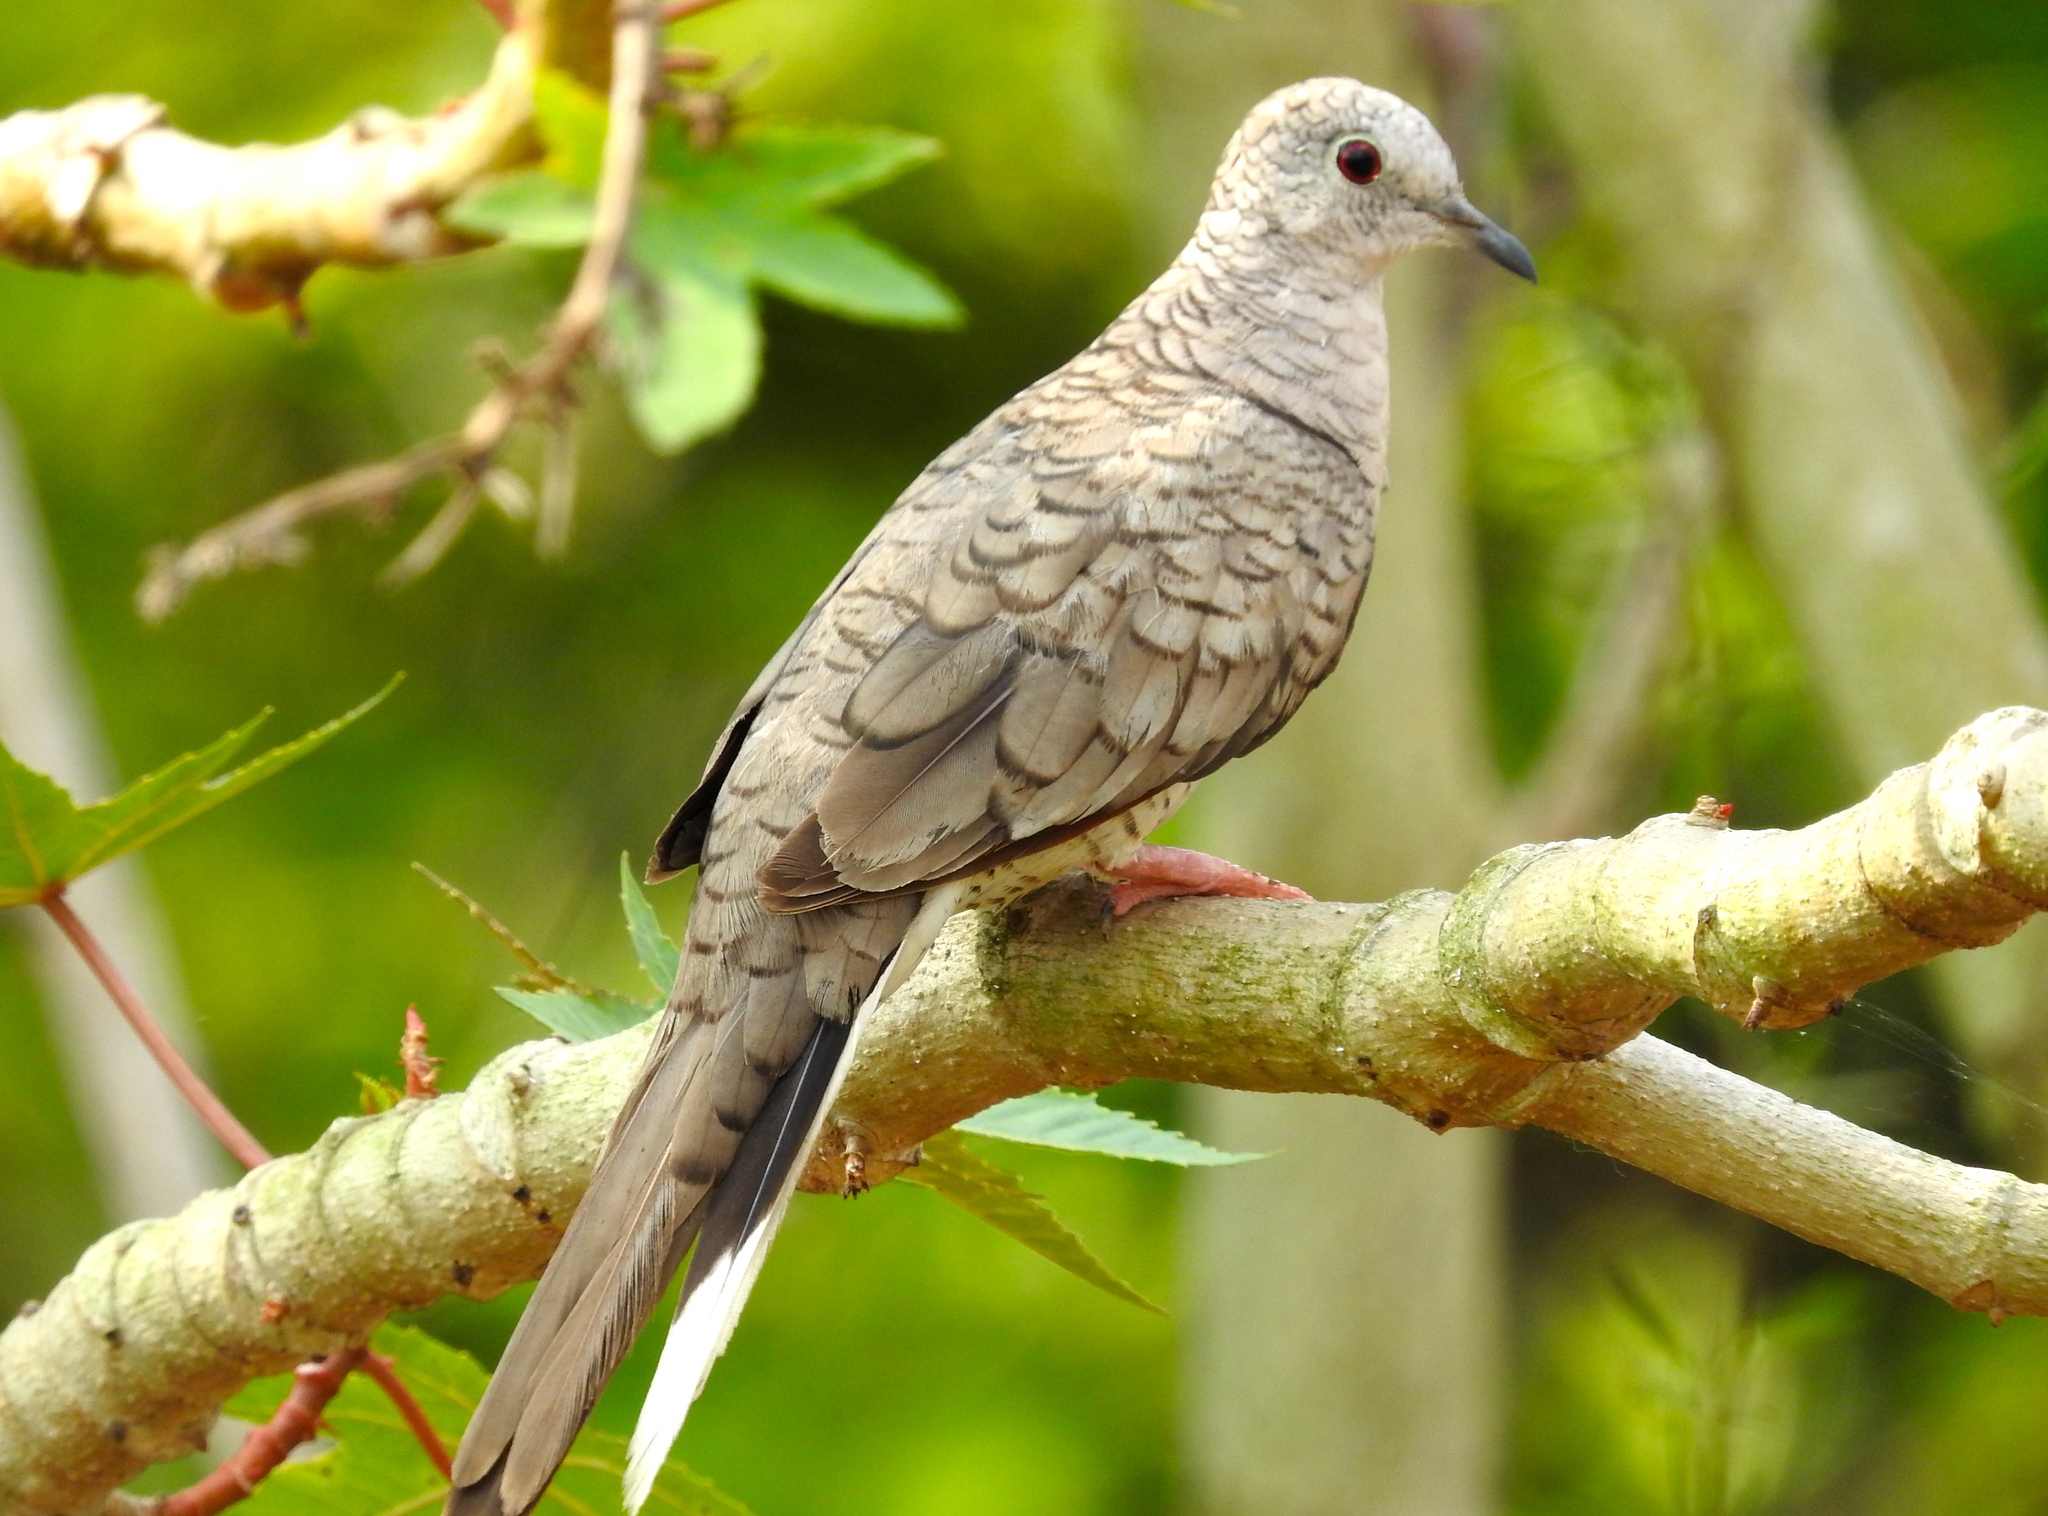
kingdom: Animalia
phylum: Chordata
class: Aves
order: Columbiformes
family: Columbidae
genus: Columbina
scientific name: Columbina inca
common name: Inca dove
